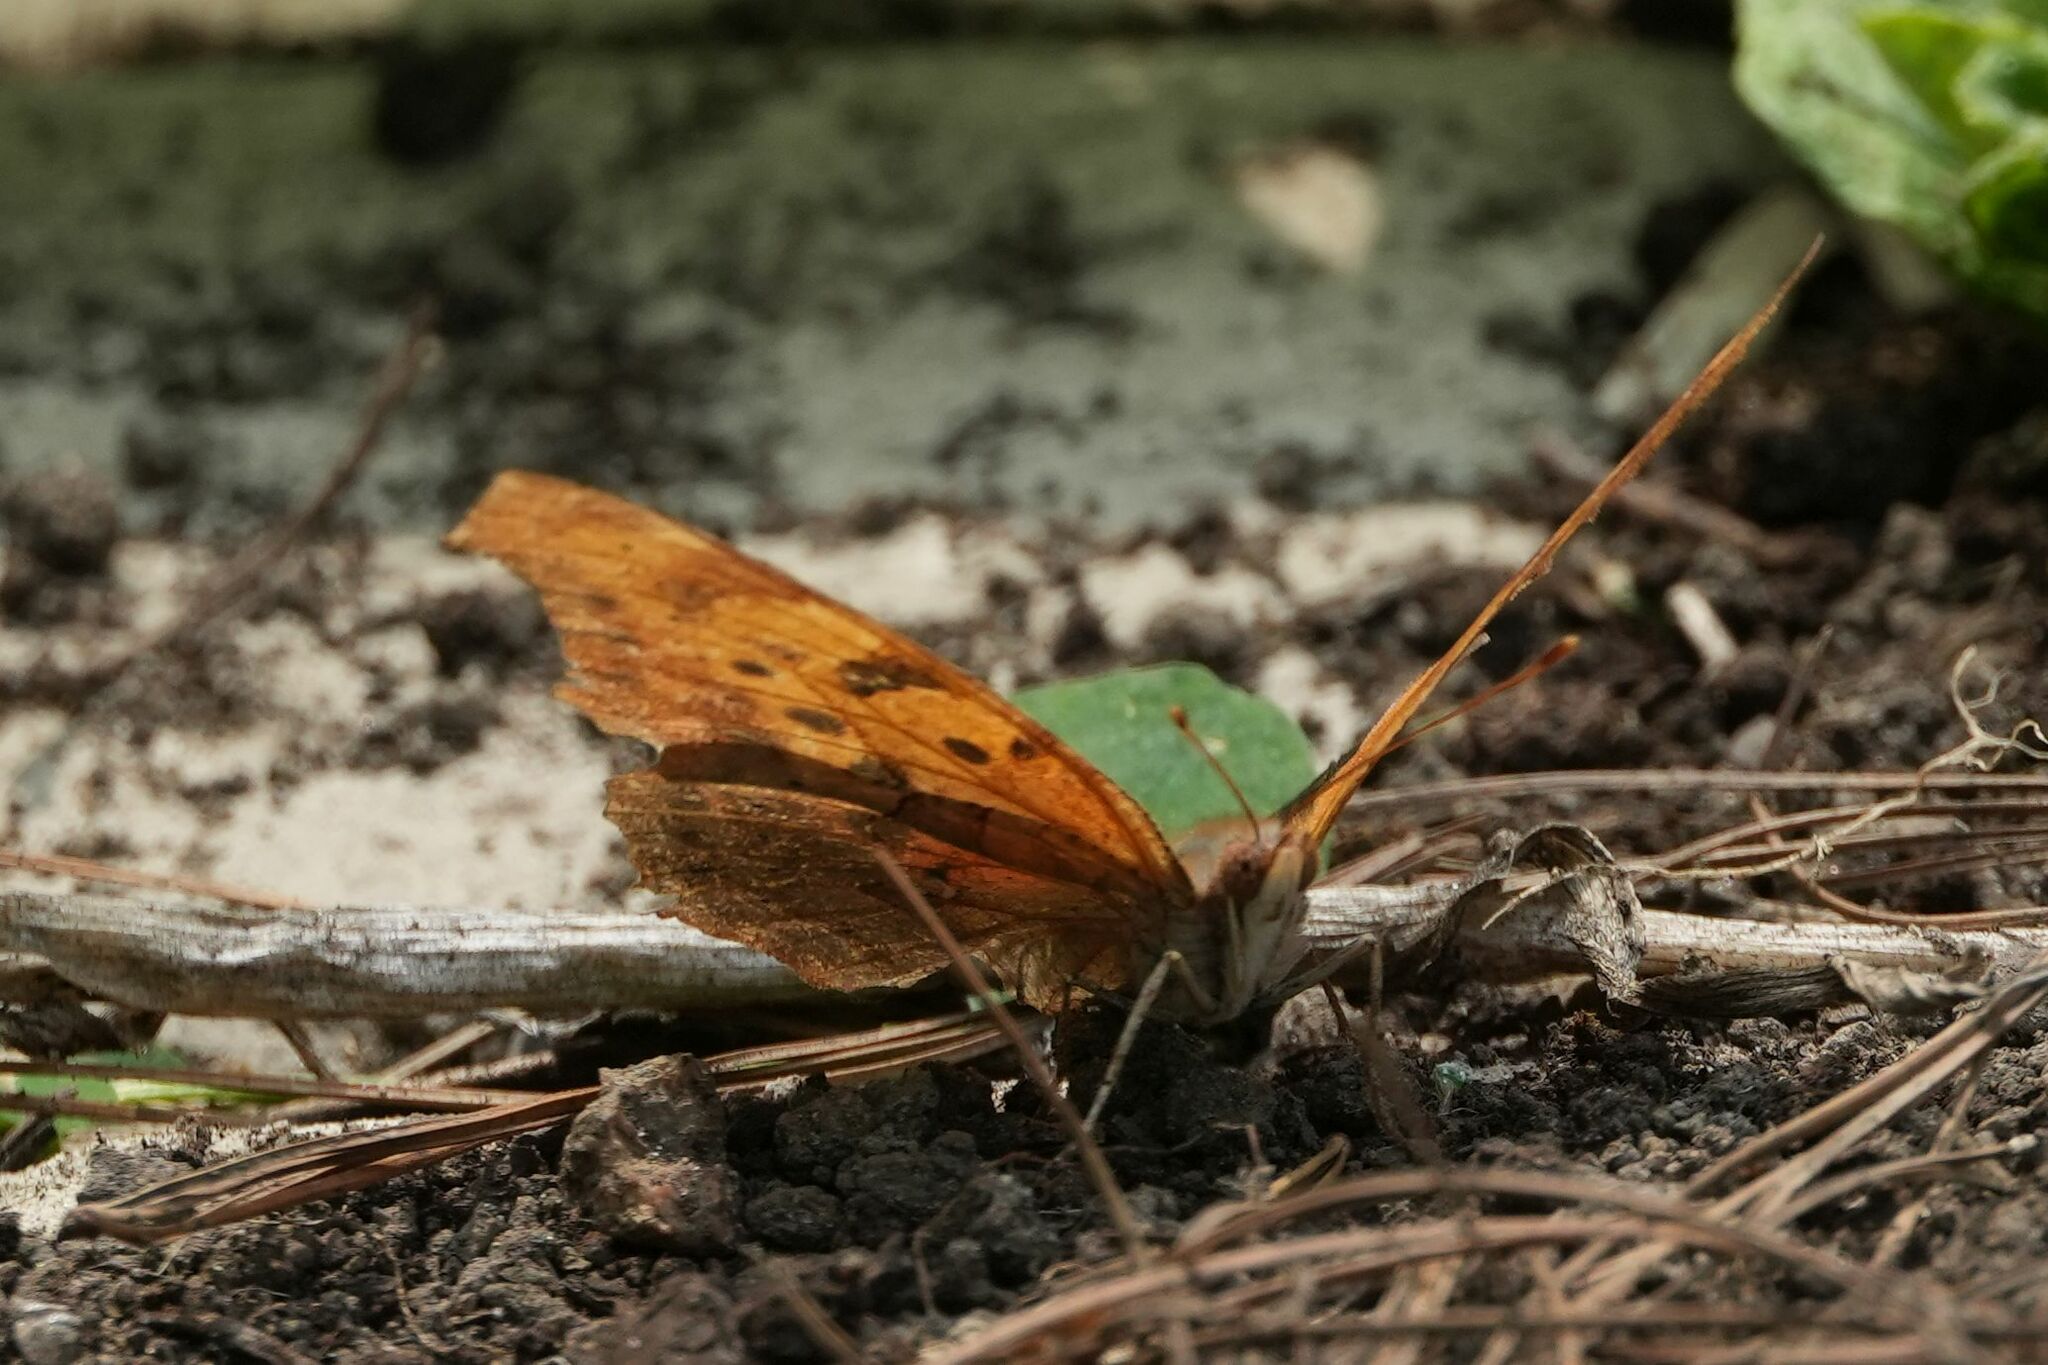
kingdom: Animalia
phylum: Arthropoda
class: Insecta
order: Lepidoptera
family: Nymphalidae
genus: Polygonia
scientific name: Polygonia interrogationis
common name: Question mark
